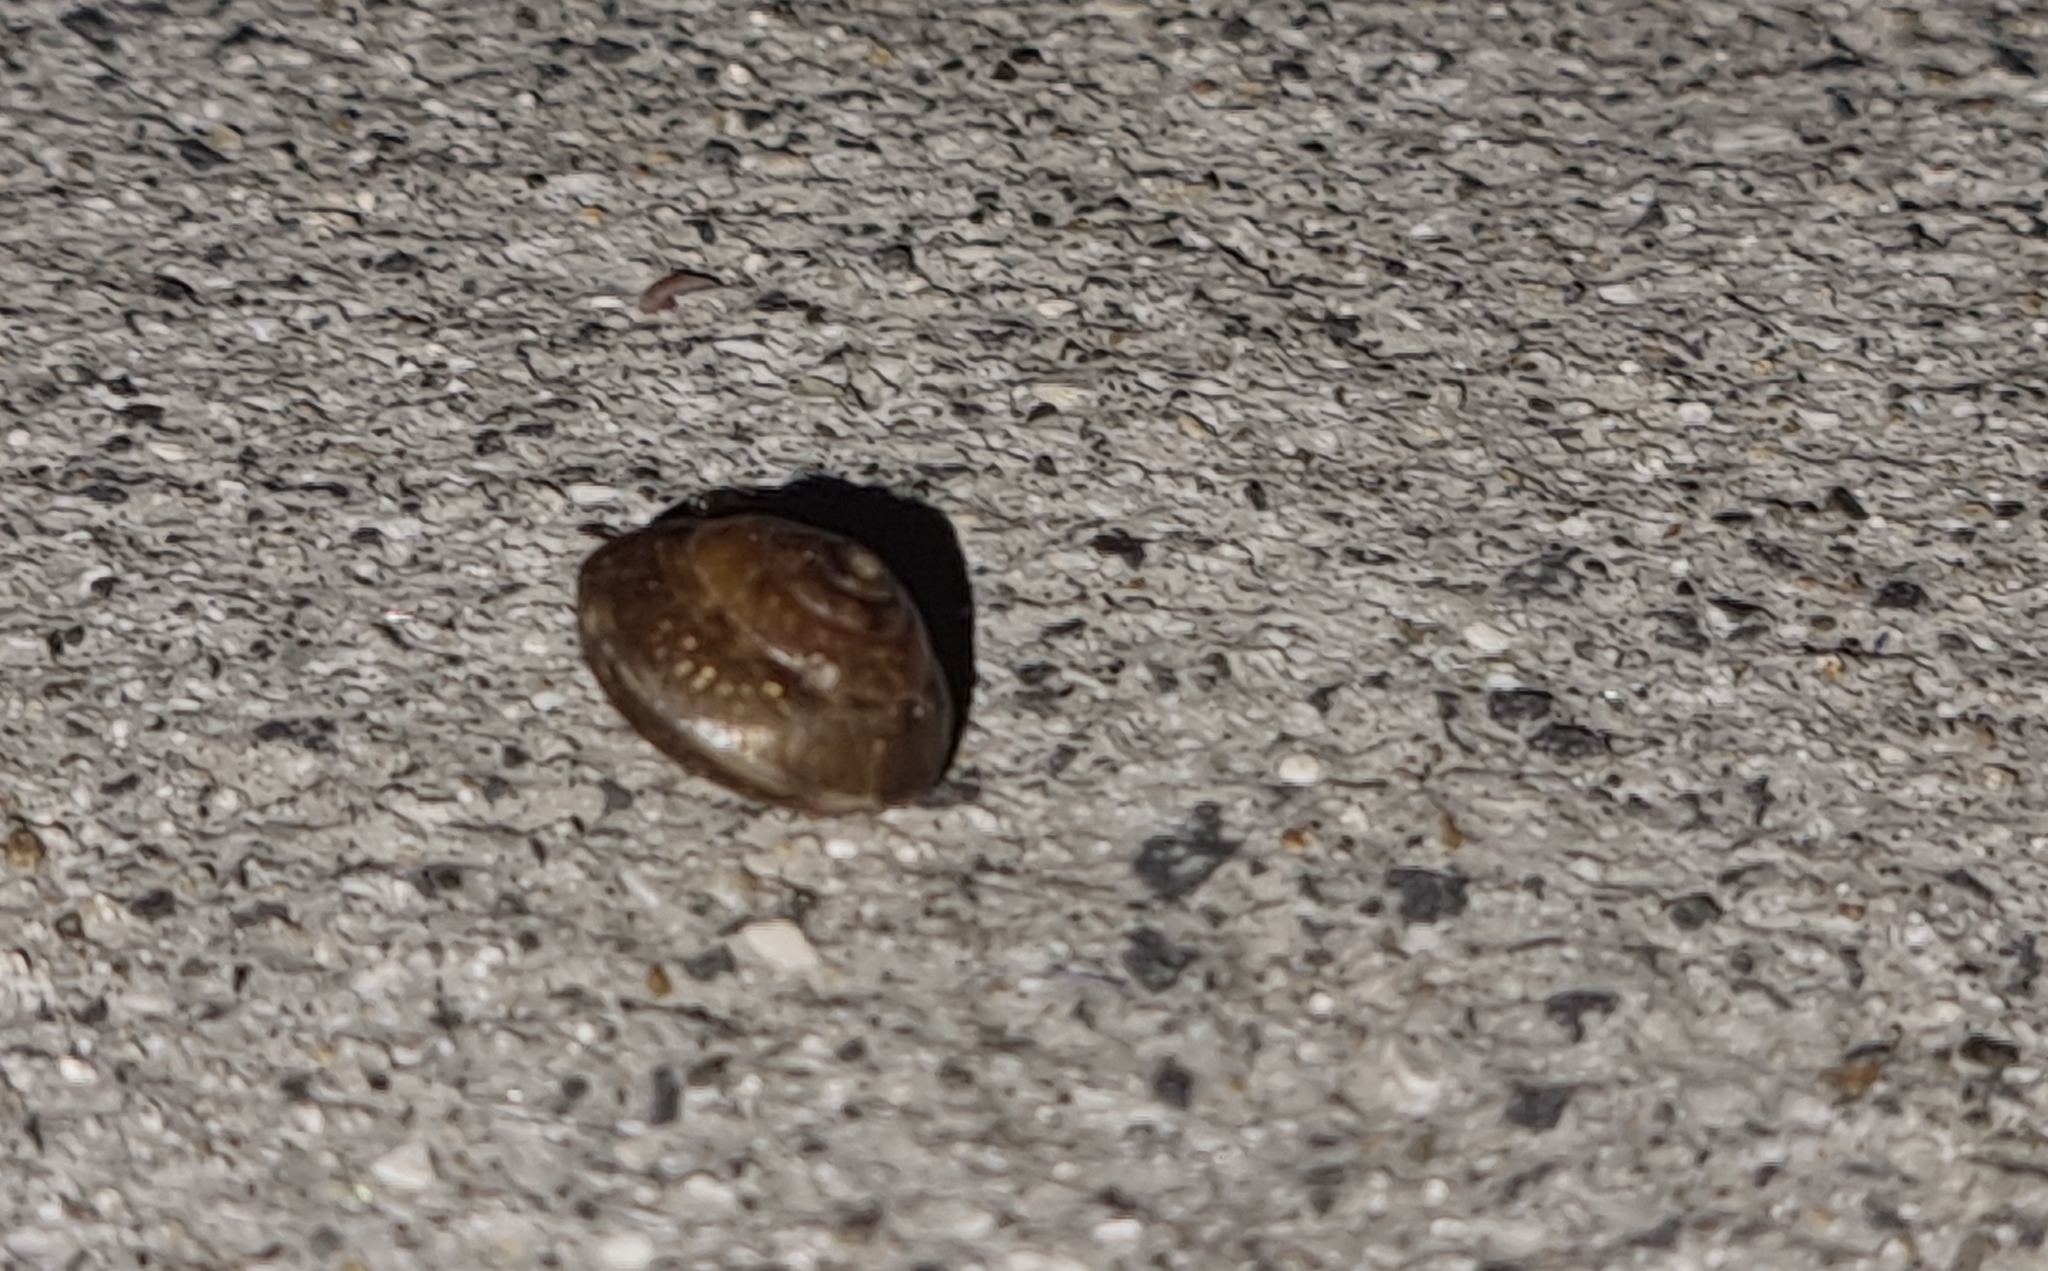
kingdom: Animalia
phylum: Mollusca
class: Gastropoda
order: Stylommatophora
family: Hygromiidae
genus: Hygromia
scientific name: Hygromia cinctella
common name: Girdled snail
